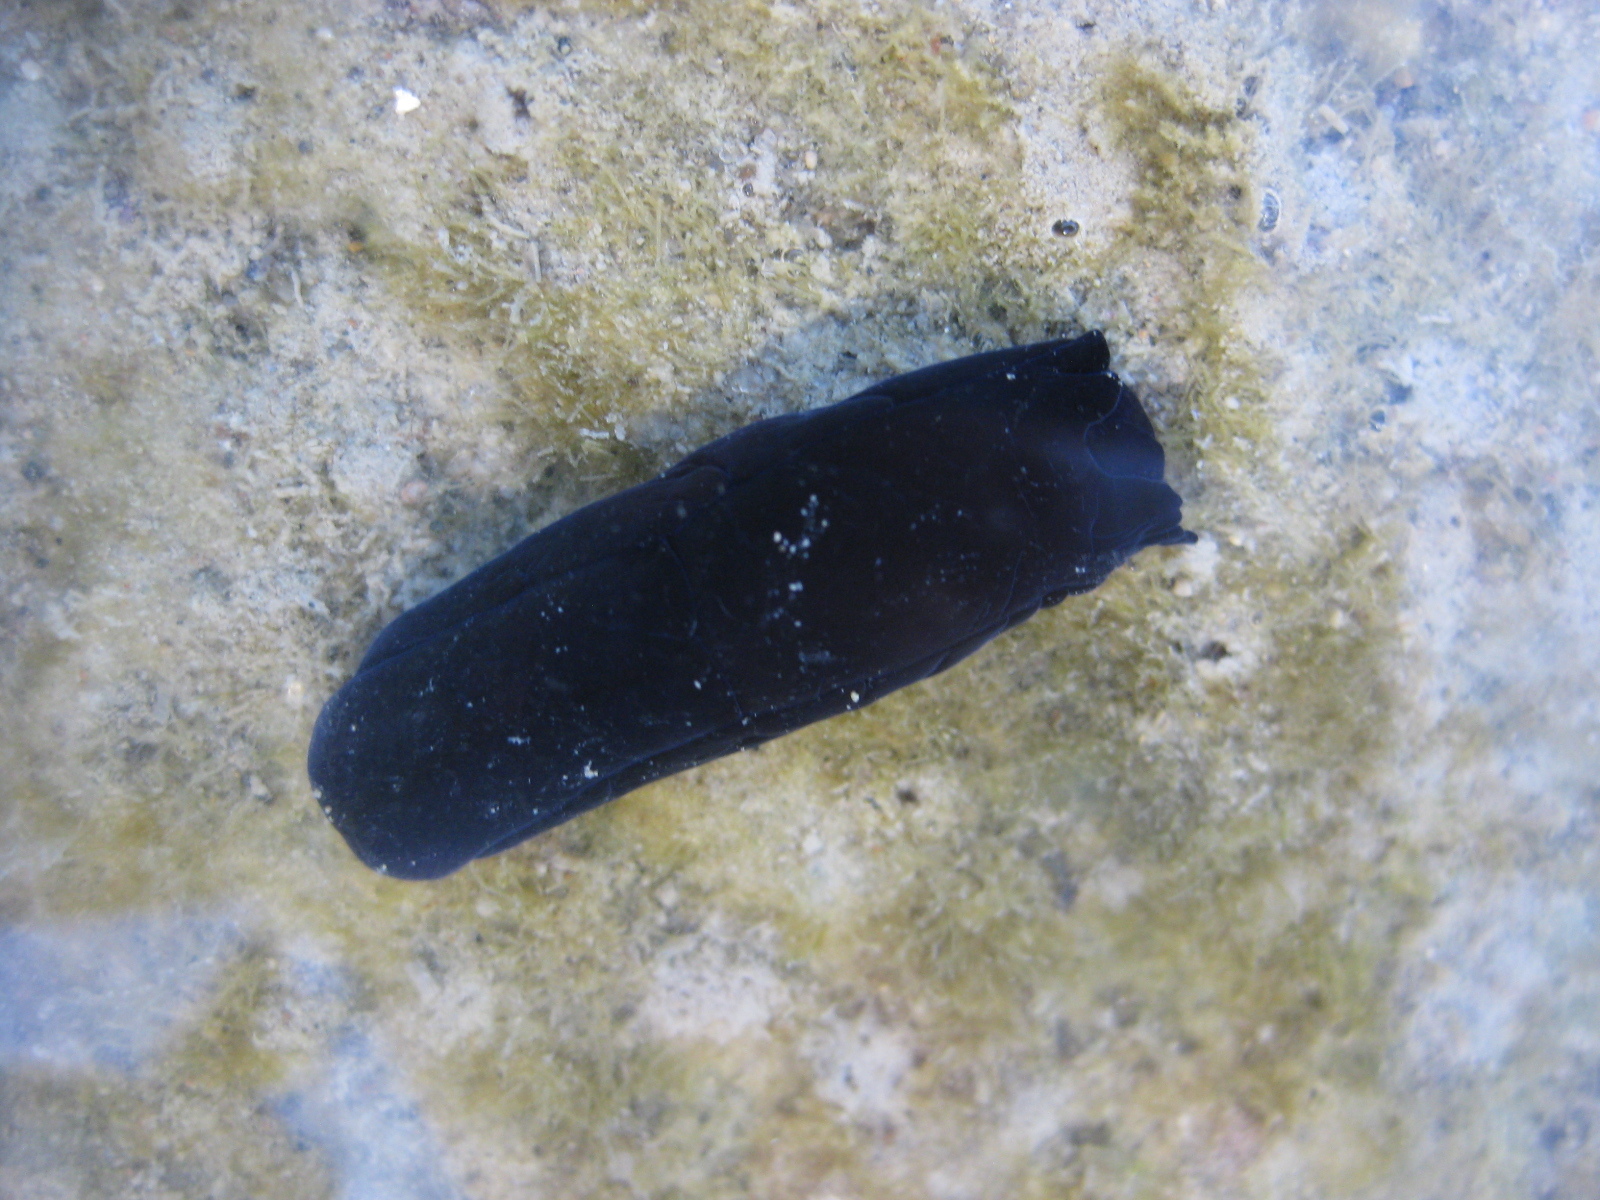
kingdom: Animalia
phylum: Mollusca
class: Gastropoda
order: Cephalaspidea
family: Aglajidae
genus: Melanochlamys
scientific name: Melanochlamys cylindrica
